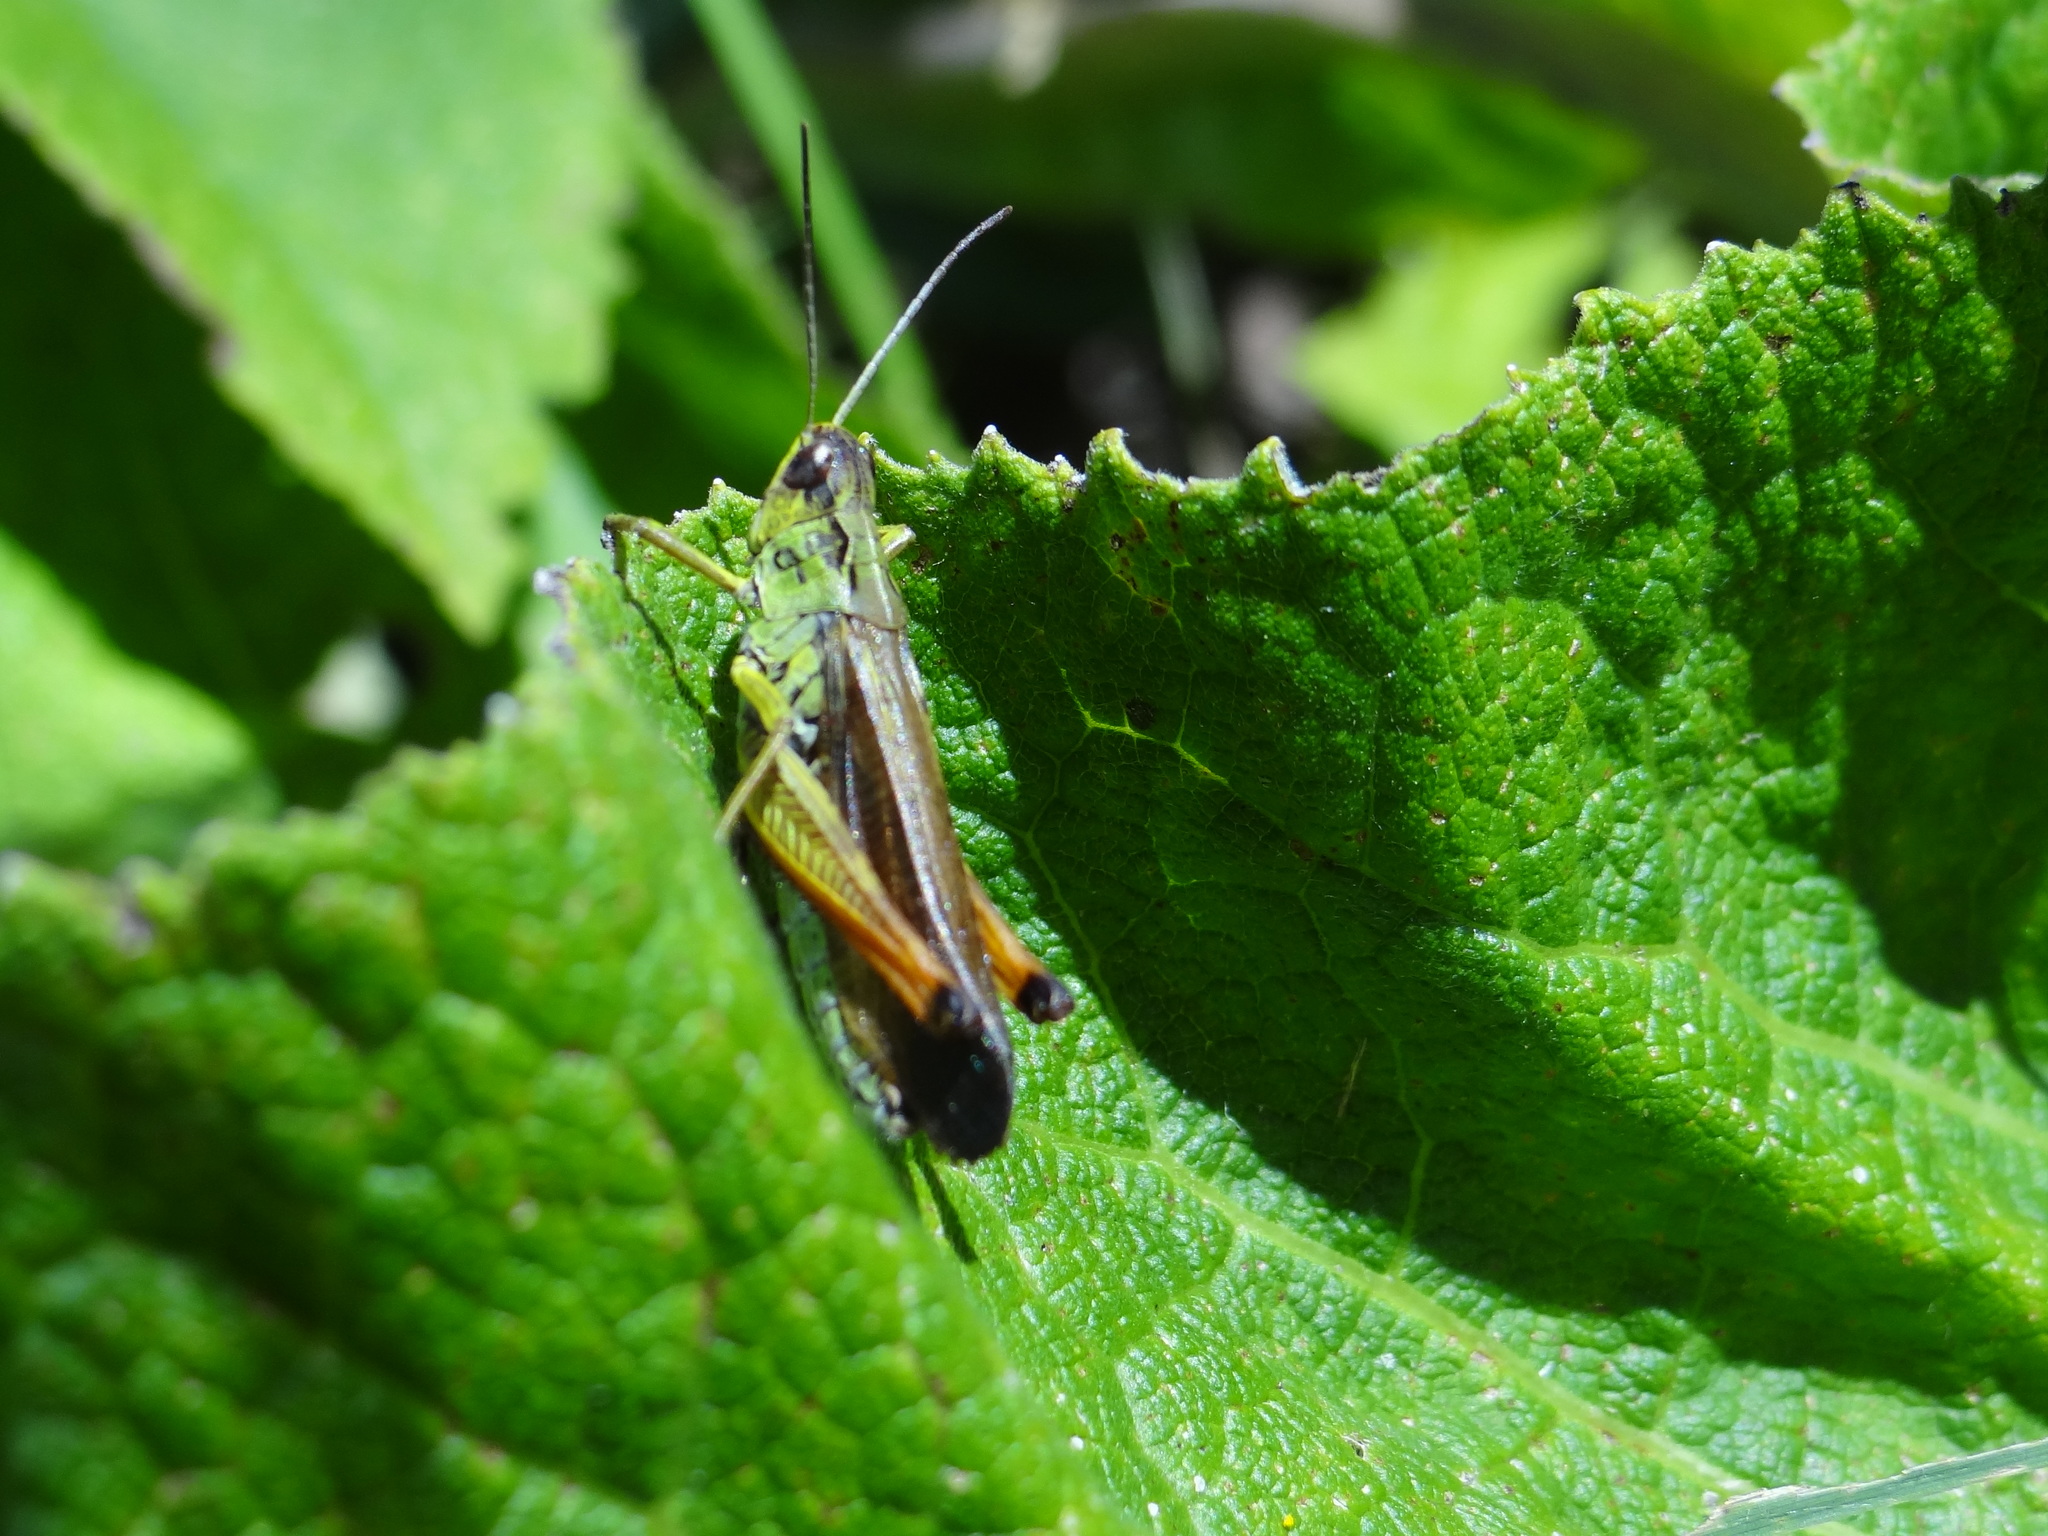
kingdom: Animalia
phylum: Arthropoda
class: Insecta
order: Orthoptera
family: Acrididae
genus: Stauroderus
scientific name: Stauroderus scalaris
